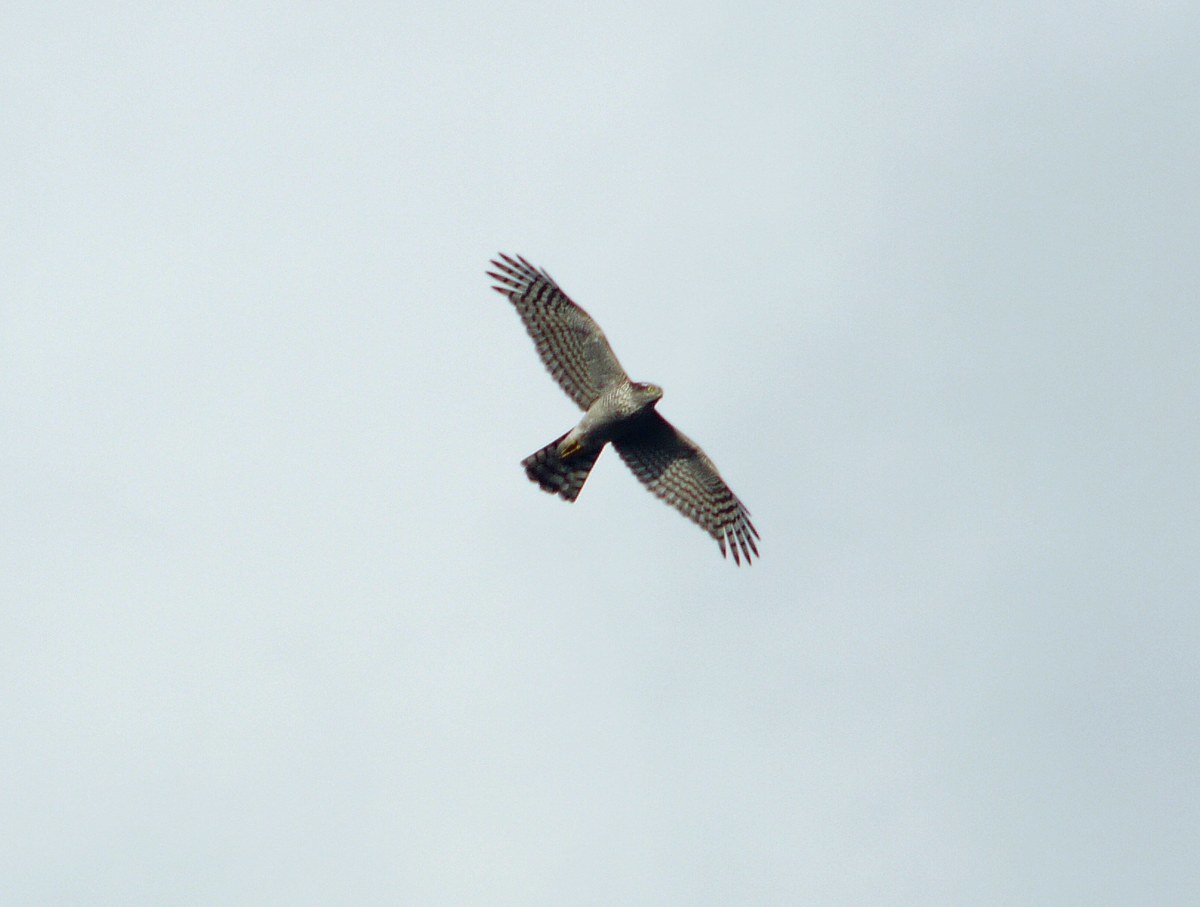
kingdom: Animalia
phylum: Chordata
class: Aves
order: Accipitriformes
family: Accipitridae
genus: Accipiter
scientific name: Accipiter nisus
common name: Eurasian sparrowhawk
